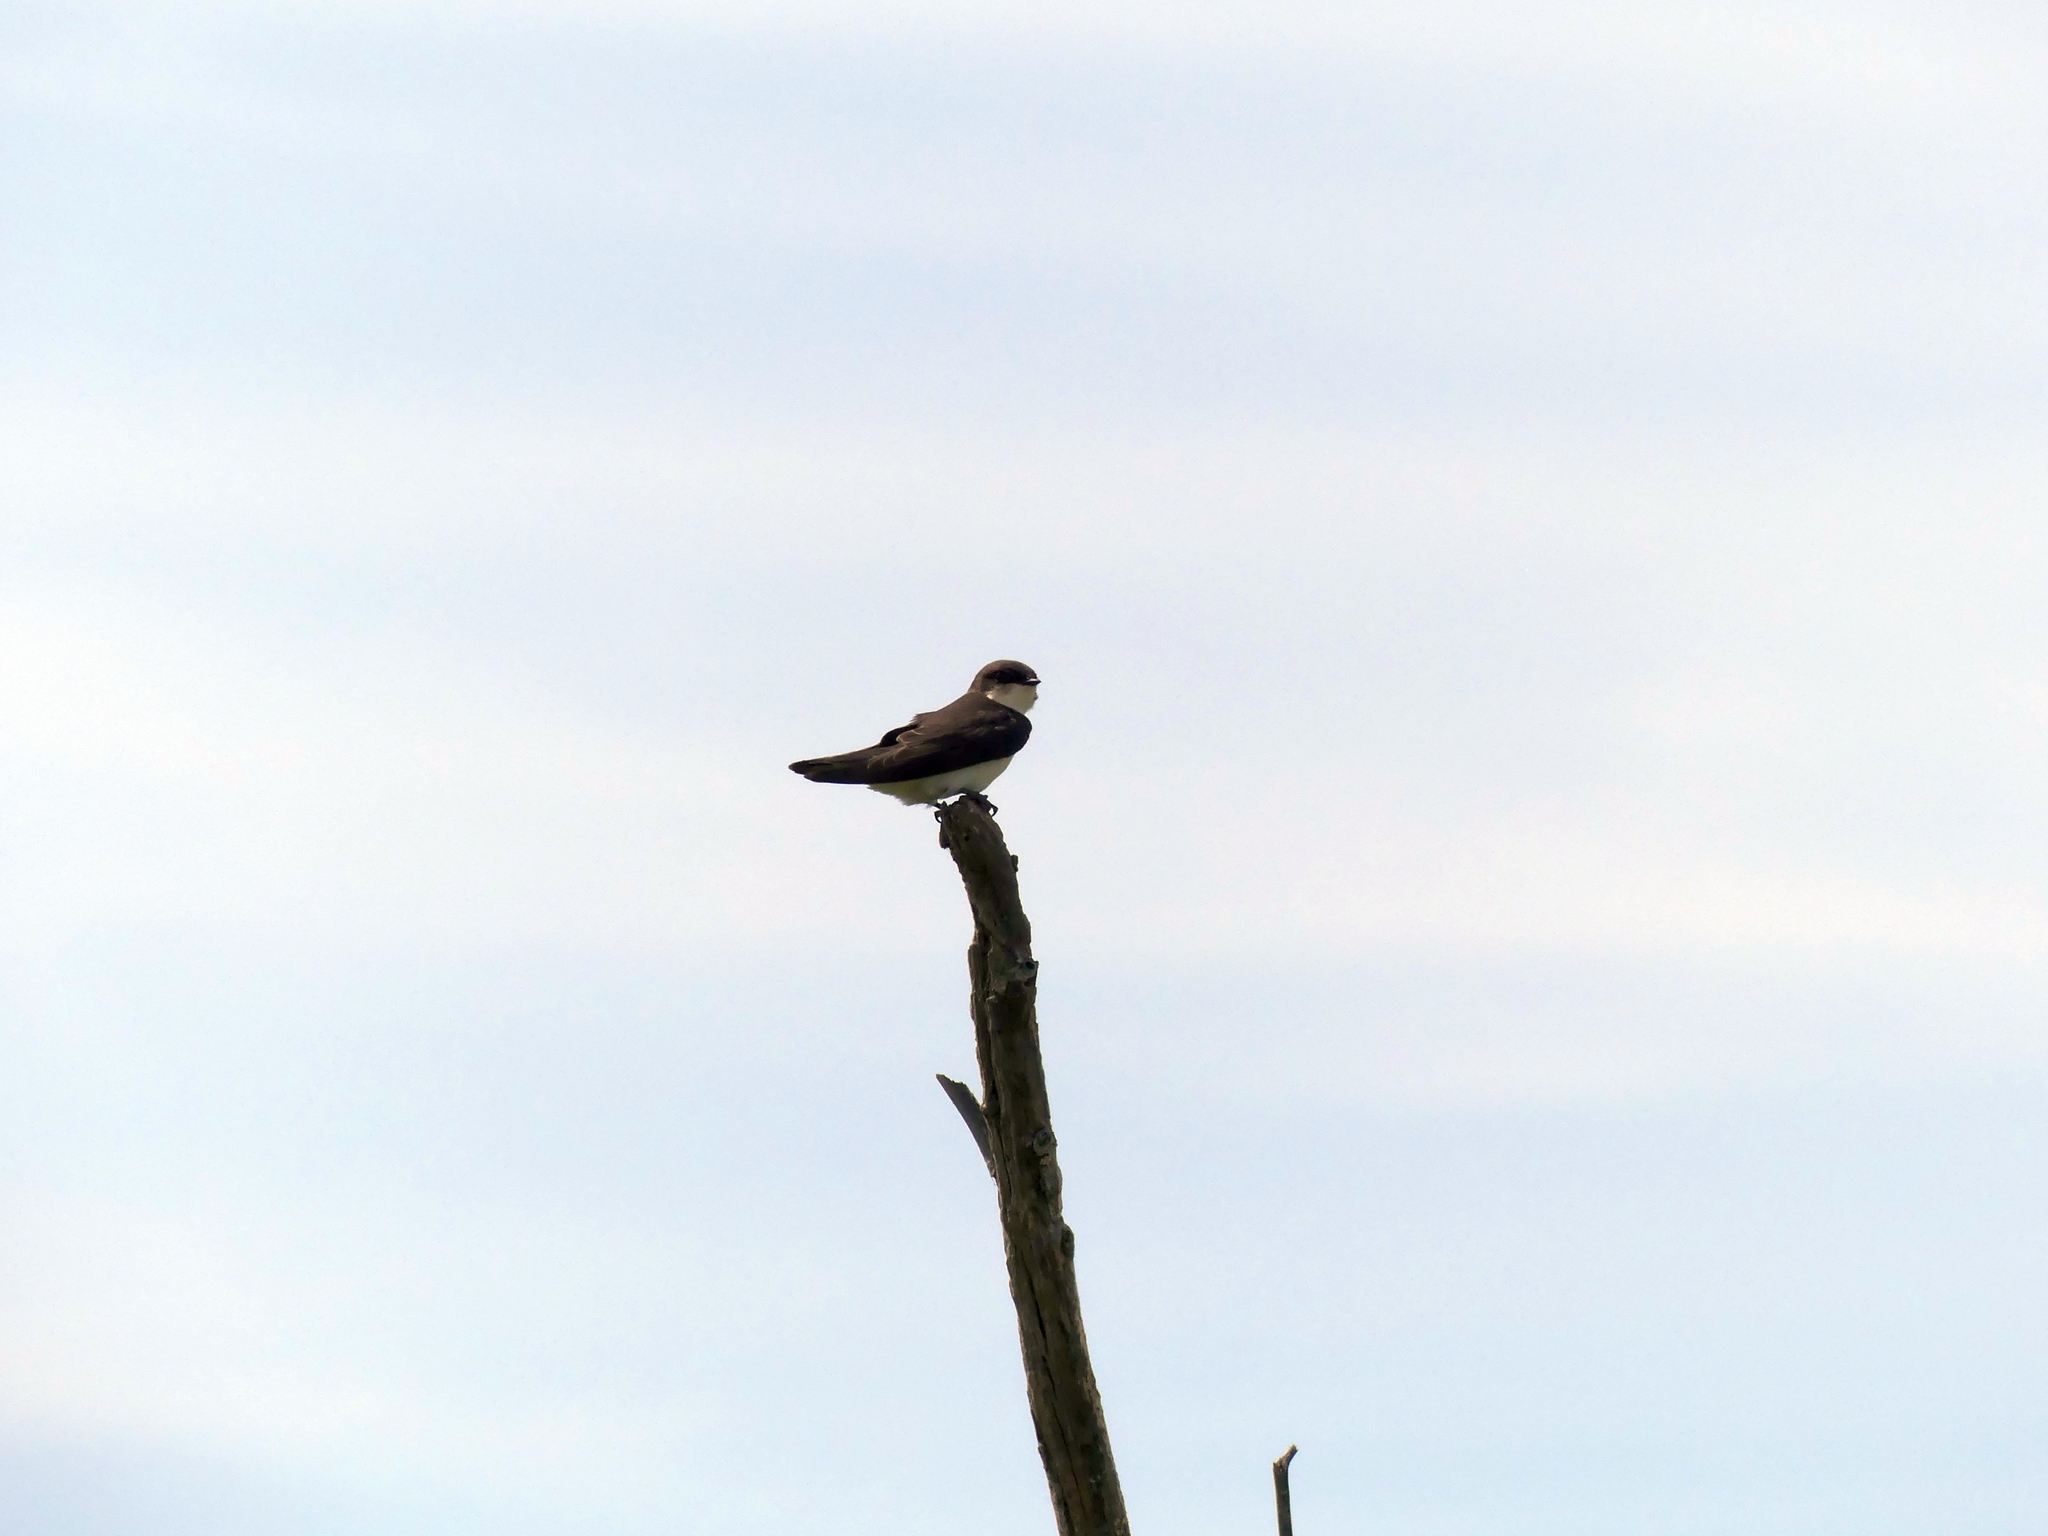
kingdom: Animalia
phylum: Chordata
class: Aves
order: Passeriformes
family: Hirundinidae
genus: Tachycineta
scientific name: Tachycineta bicolor
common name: Tree swallow
